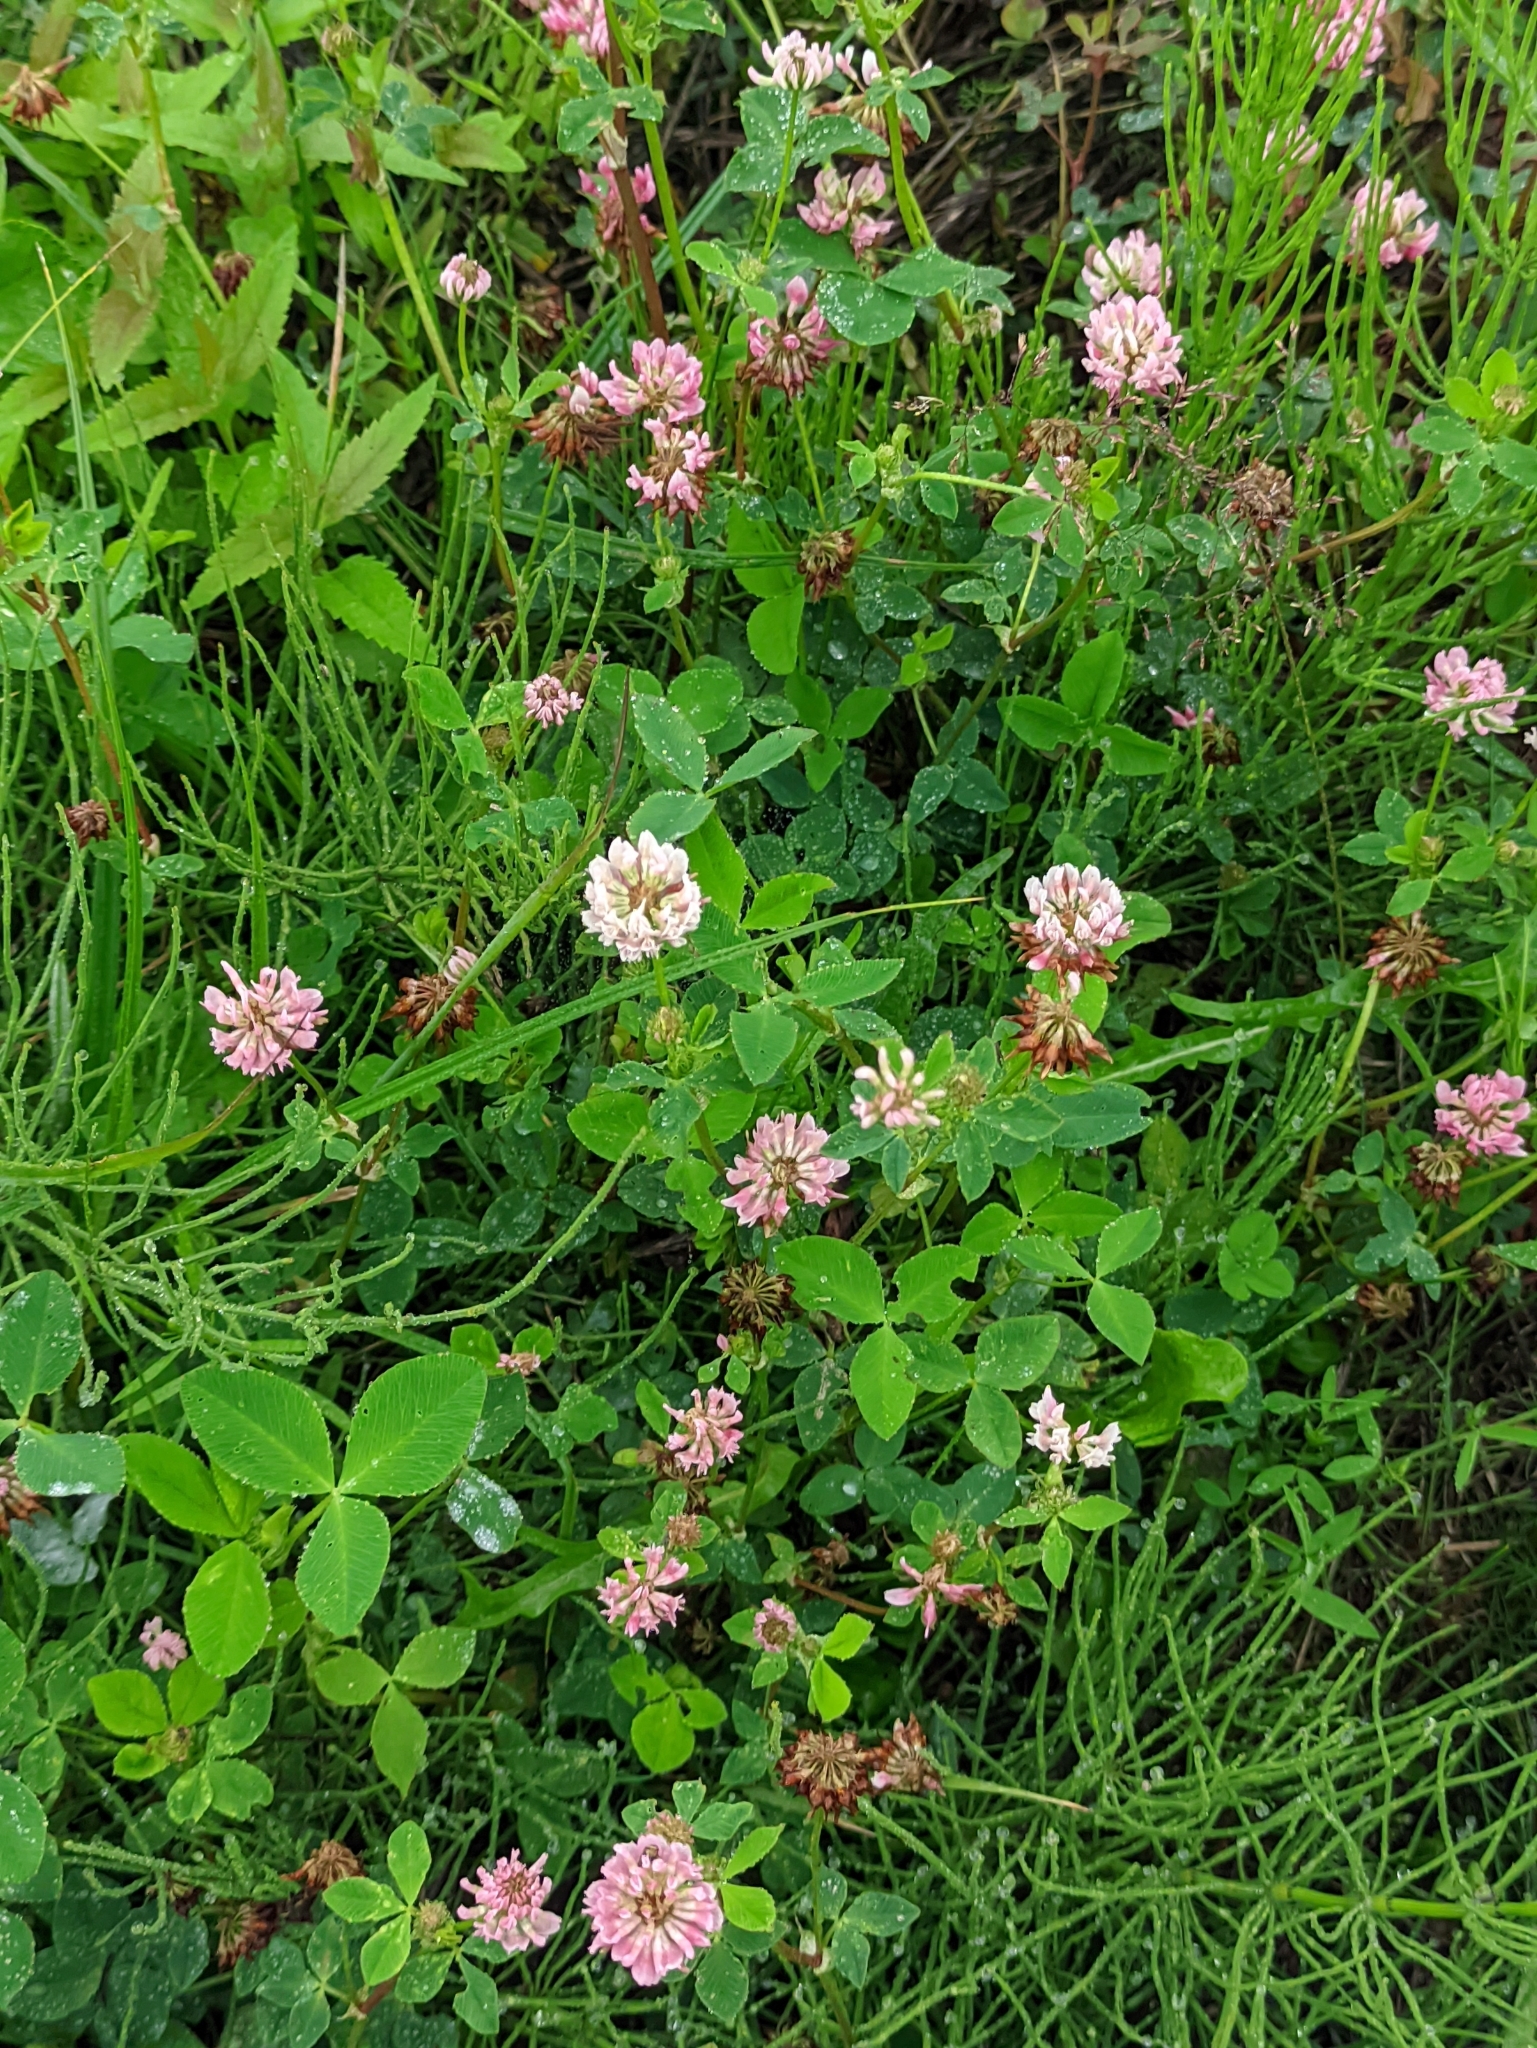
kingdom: Plantae
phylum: Tracheophyta
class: Magnoliopsida
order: Fabales
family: Fabaceae
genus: Trifolium
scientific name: Trifolium hybridum
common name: Alsike clover
